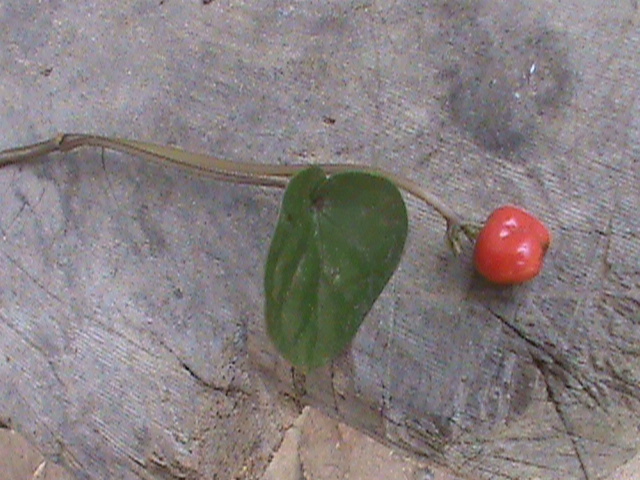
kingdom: Plantae
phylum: Tracheophyta
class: Magnoliopsida
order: Gentianales
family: Rubiaceae
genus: Geophila
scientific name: Geophila repens
